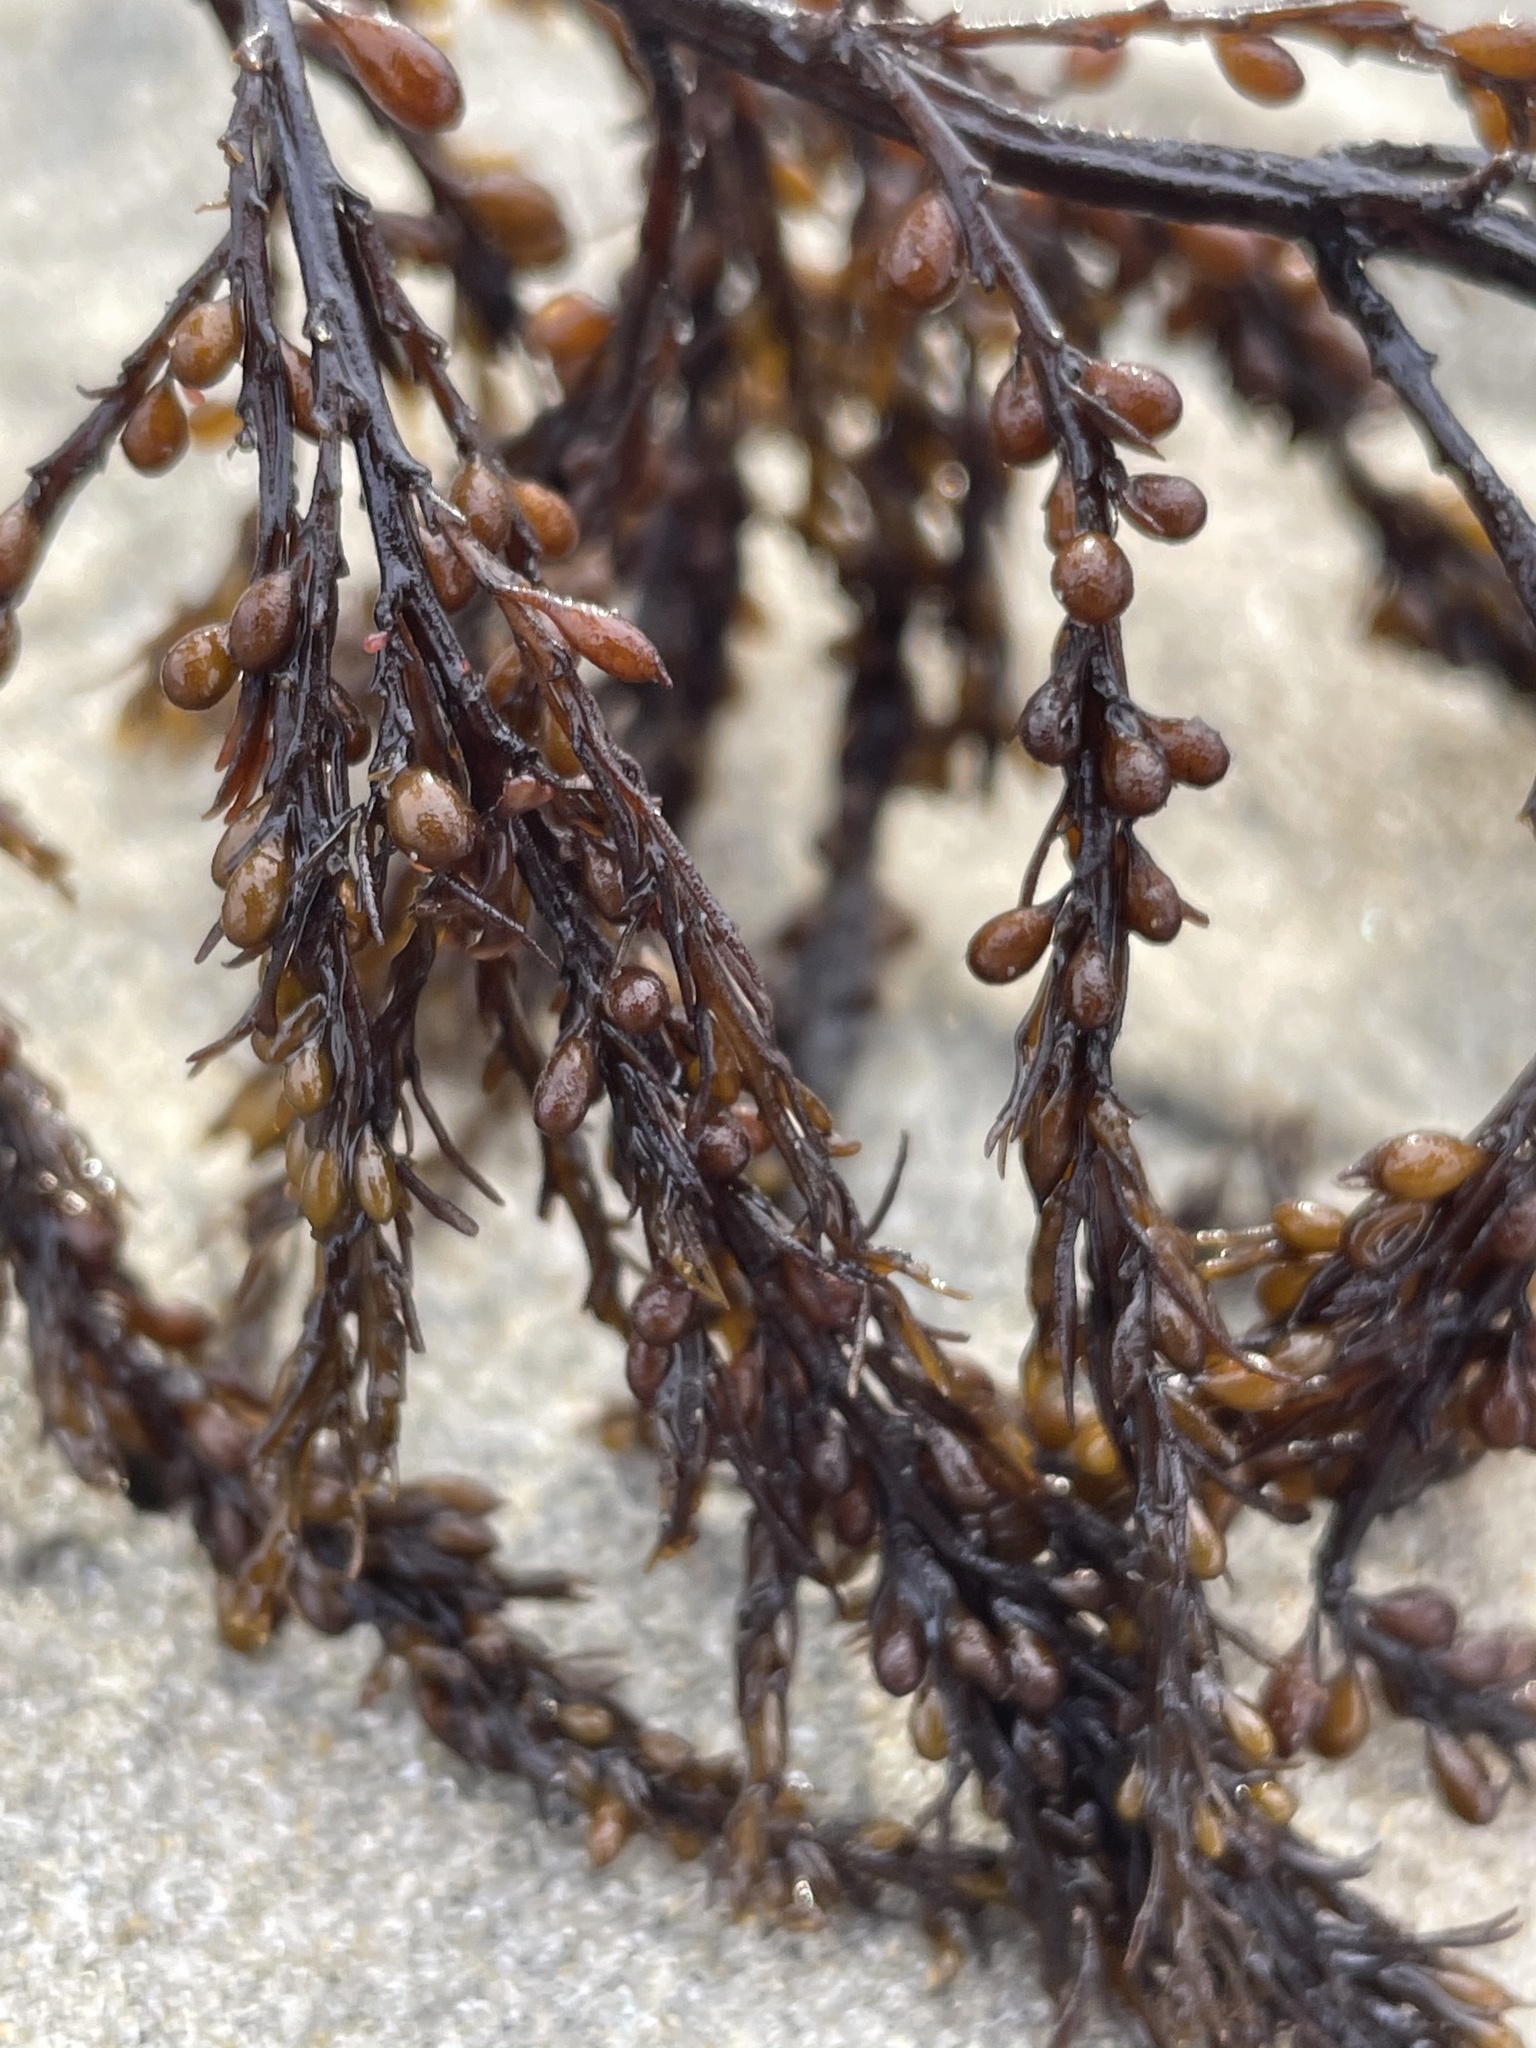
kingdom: Chromista
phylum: Ochrophyta
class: Phaeophyceae
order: Fucales
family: Sargassaceae
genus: Sargassum
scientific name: Sargassum muticum
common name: Japweed
